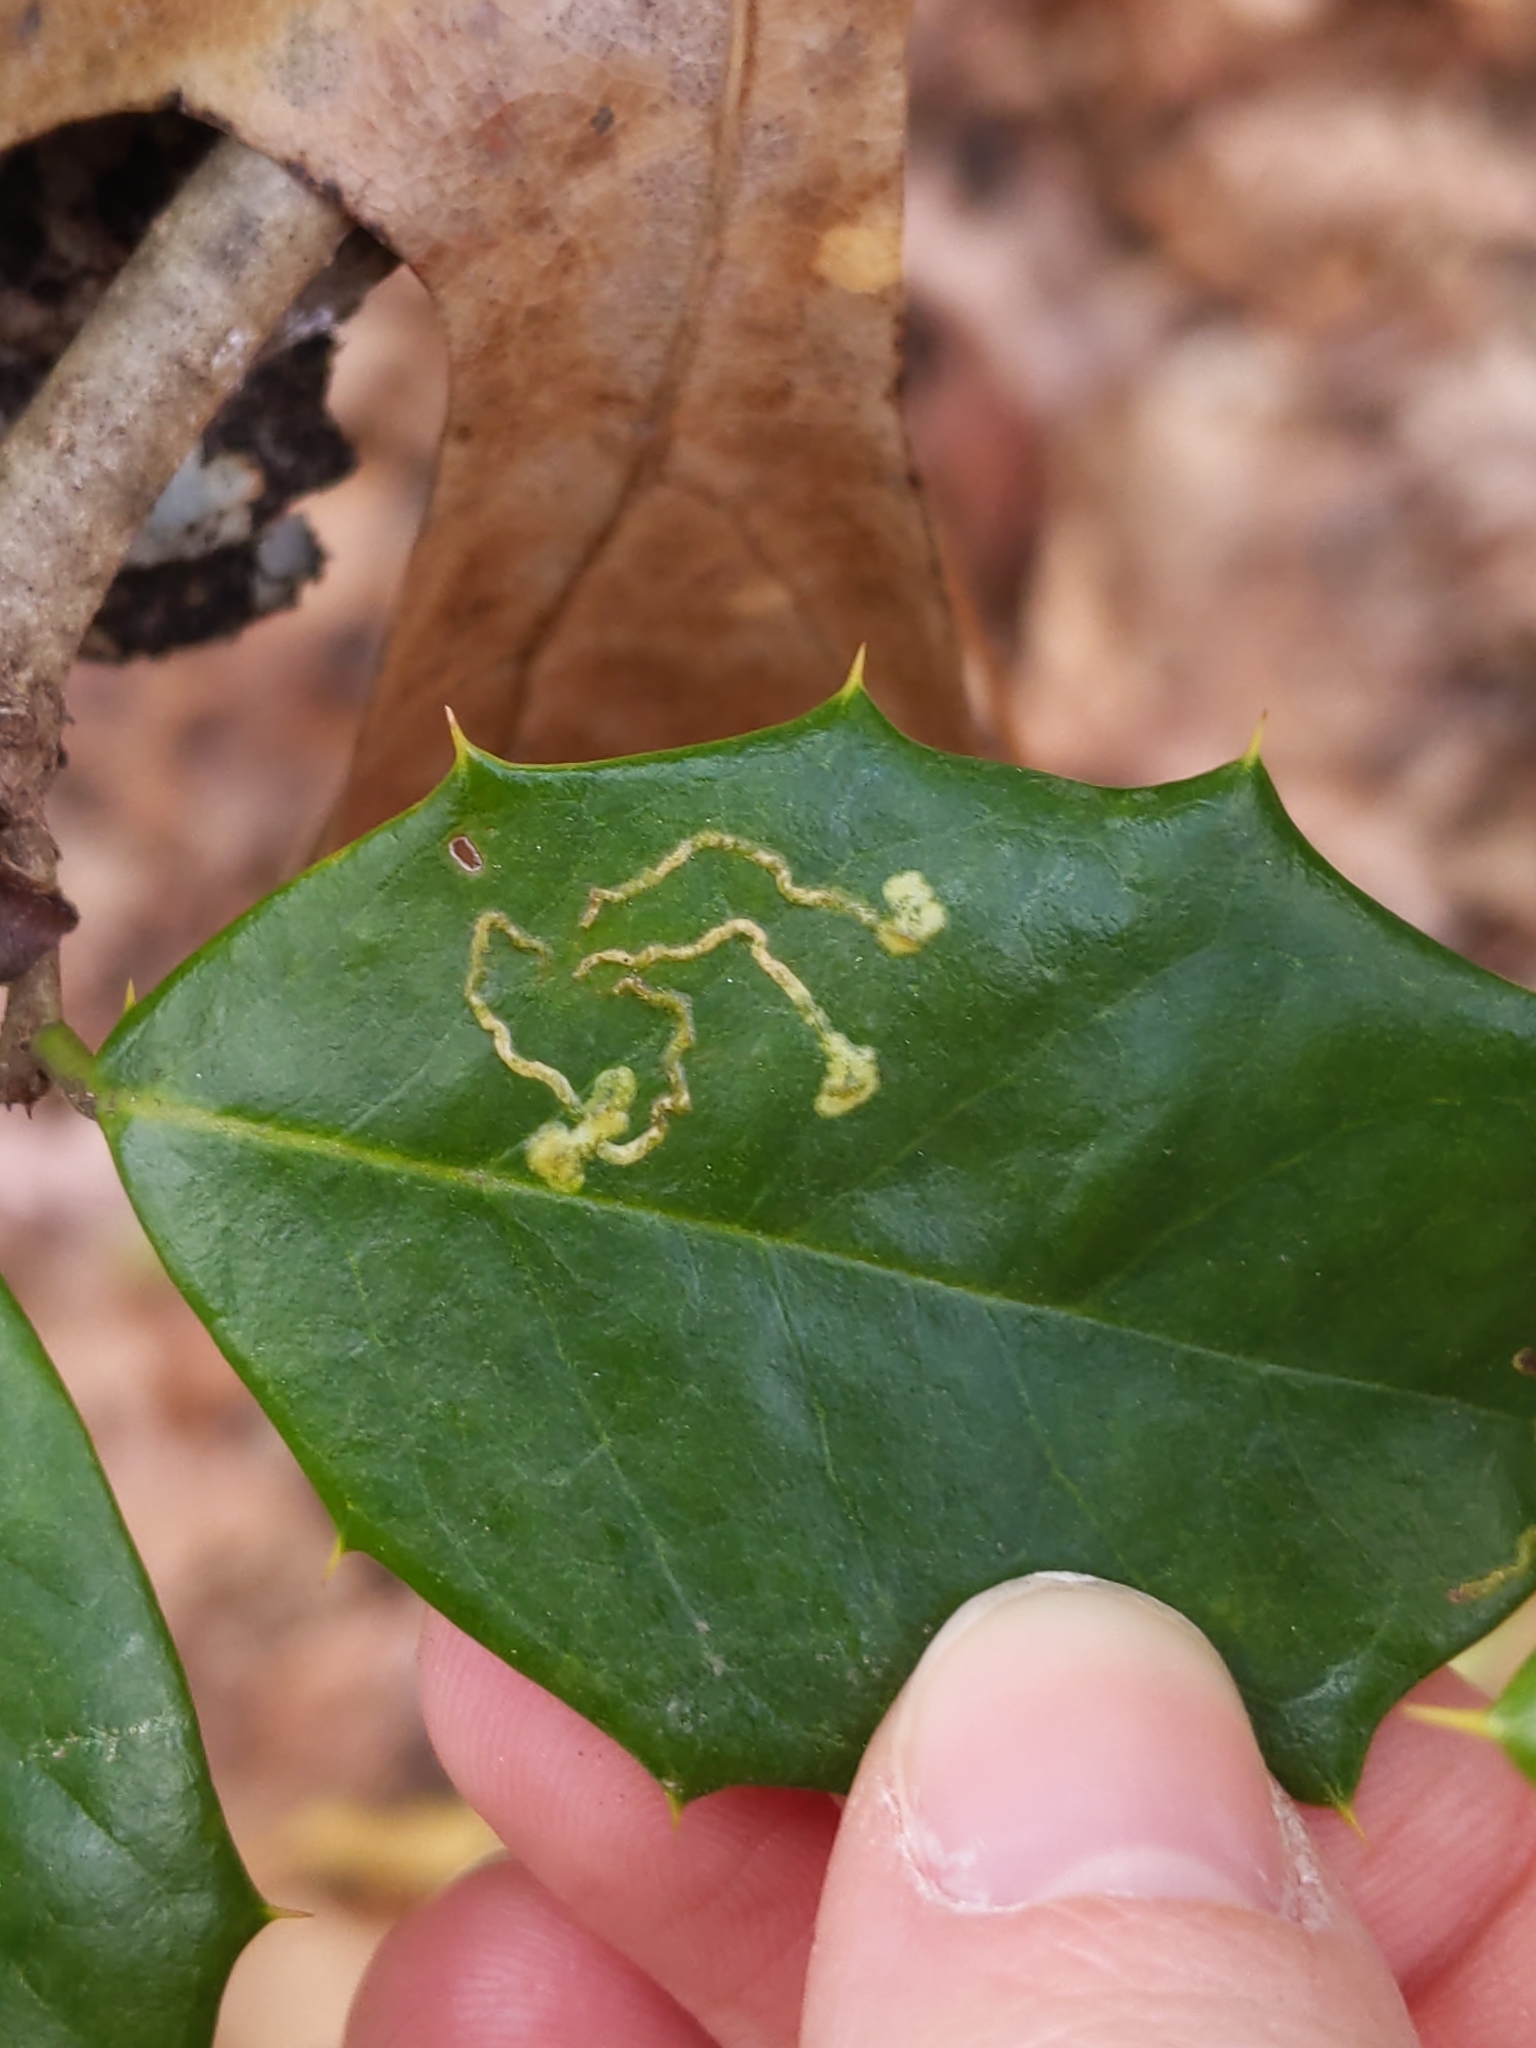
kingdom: Animalia
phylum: Arthropoda
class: Insecta
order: Diptera
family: Agromyzidae
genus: Phytomyza
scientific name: Phytomyza ilicicola
